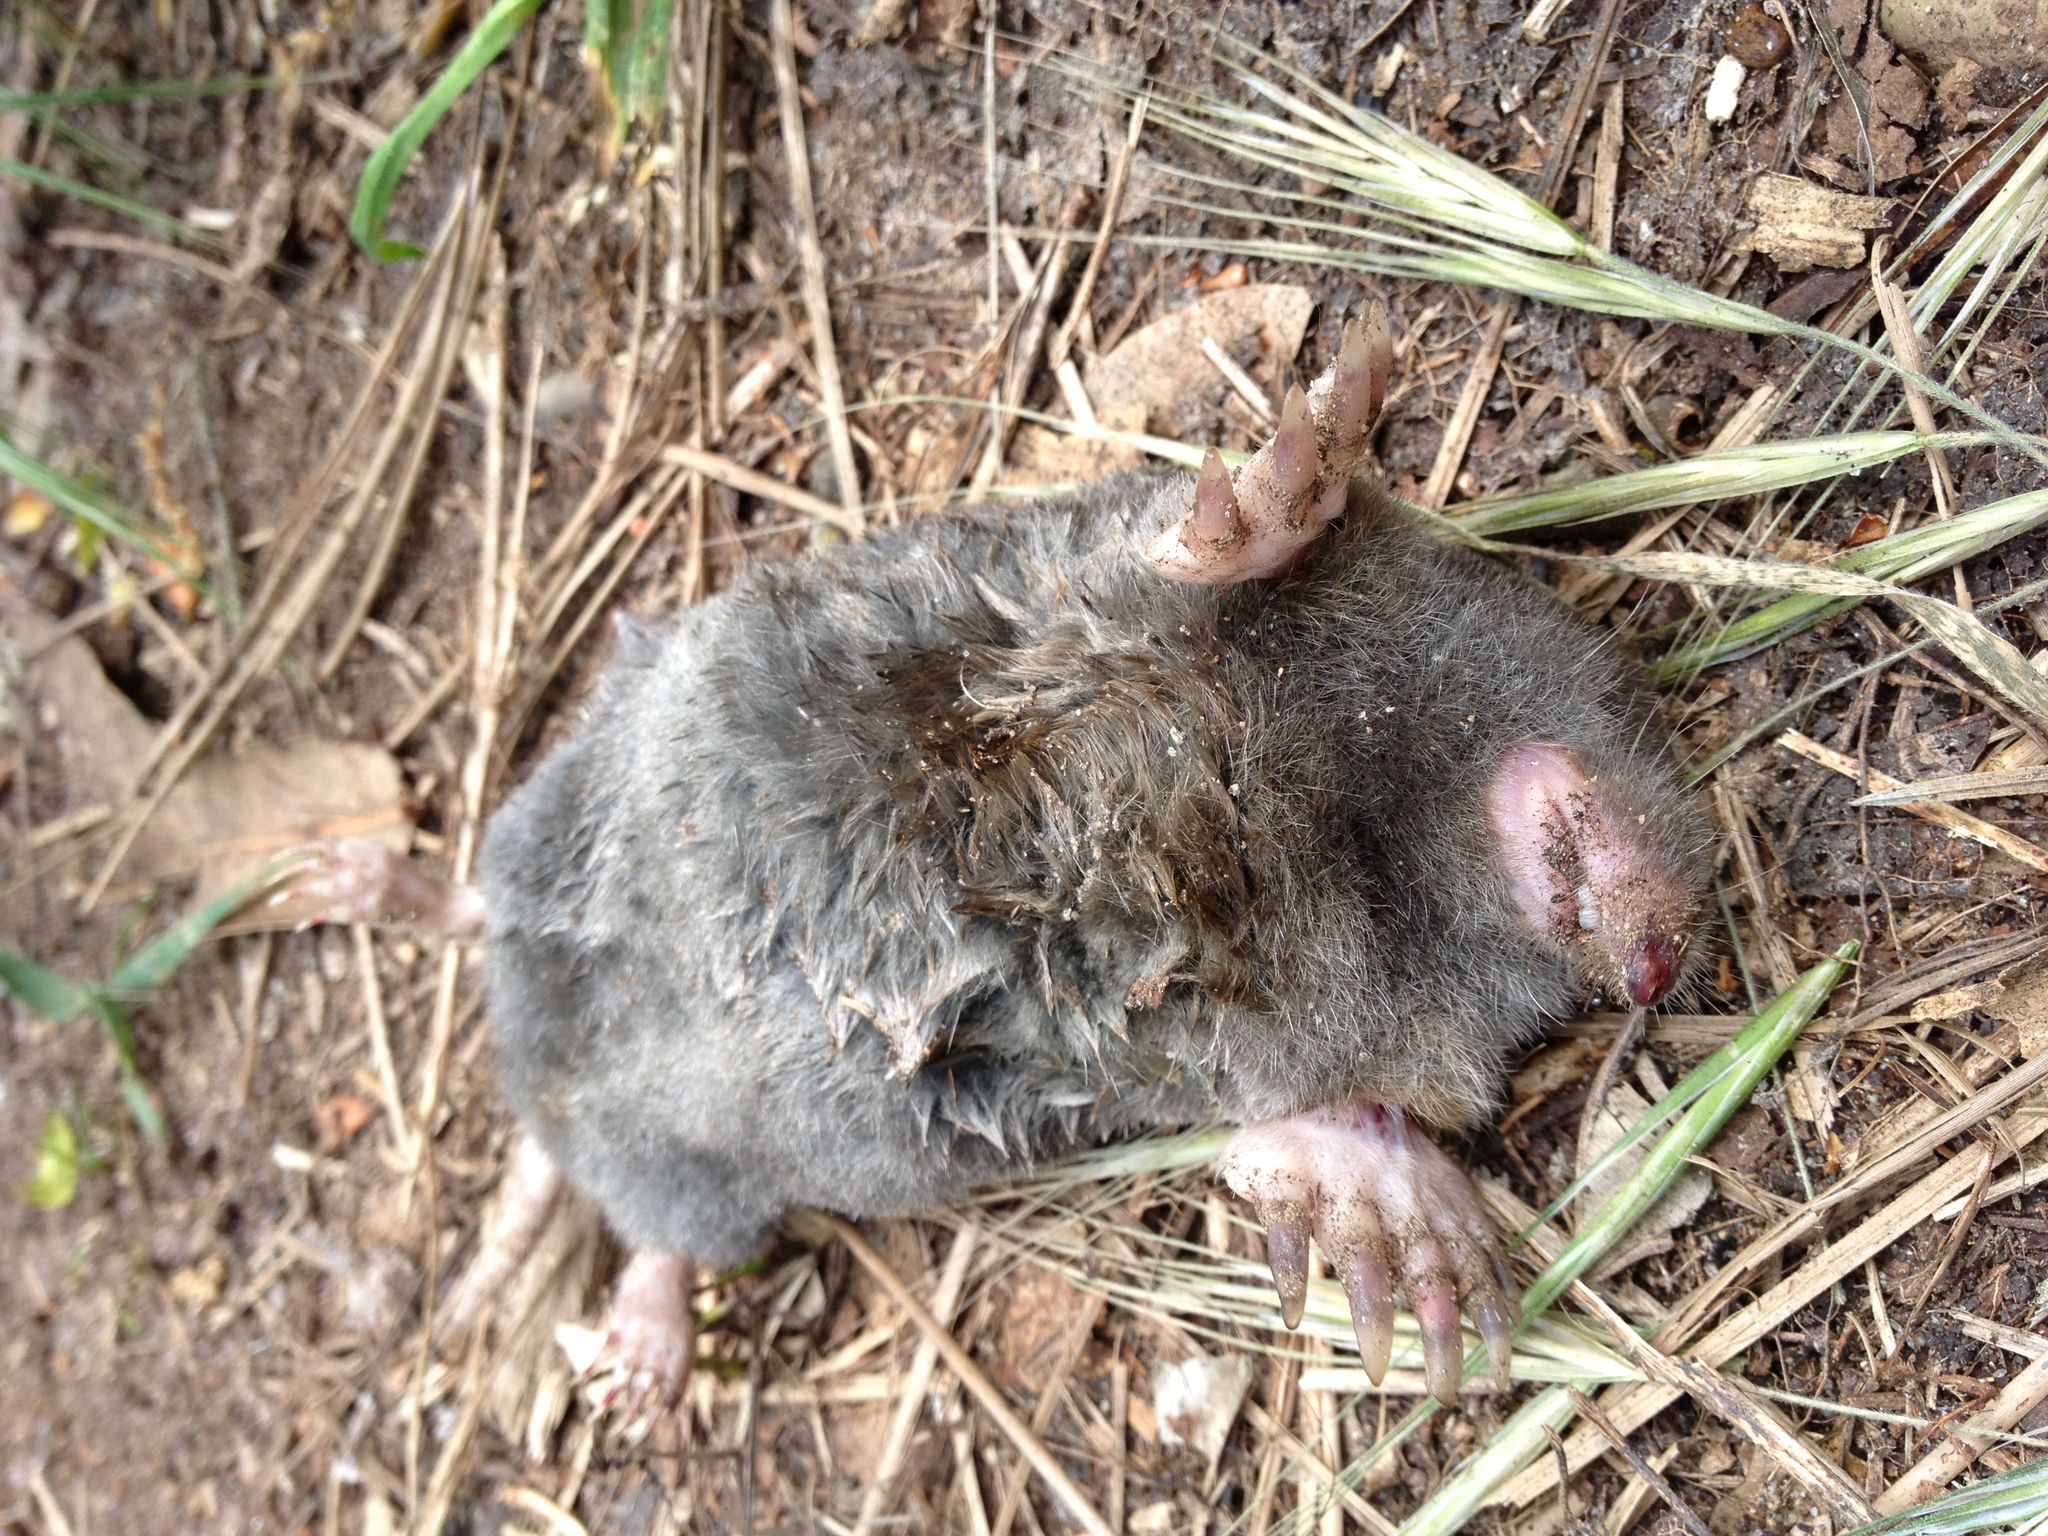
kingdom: Animalia
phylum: Chordata
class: Mammalia
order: Soricomorpha
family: Talpidae
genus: Scapanus
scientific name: Scapanus latimanus
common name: Broad-footed mole
